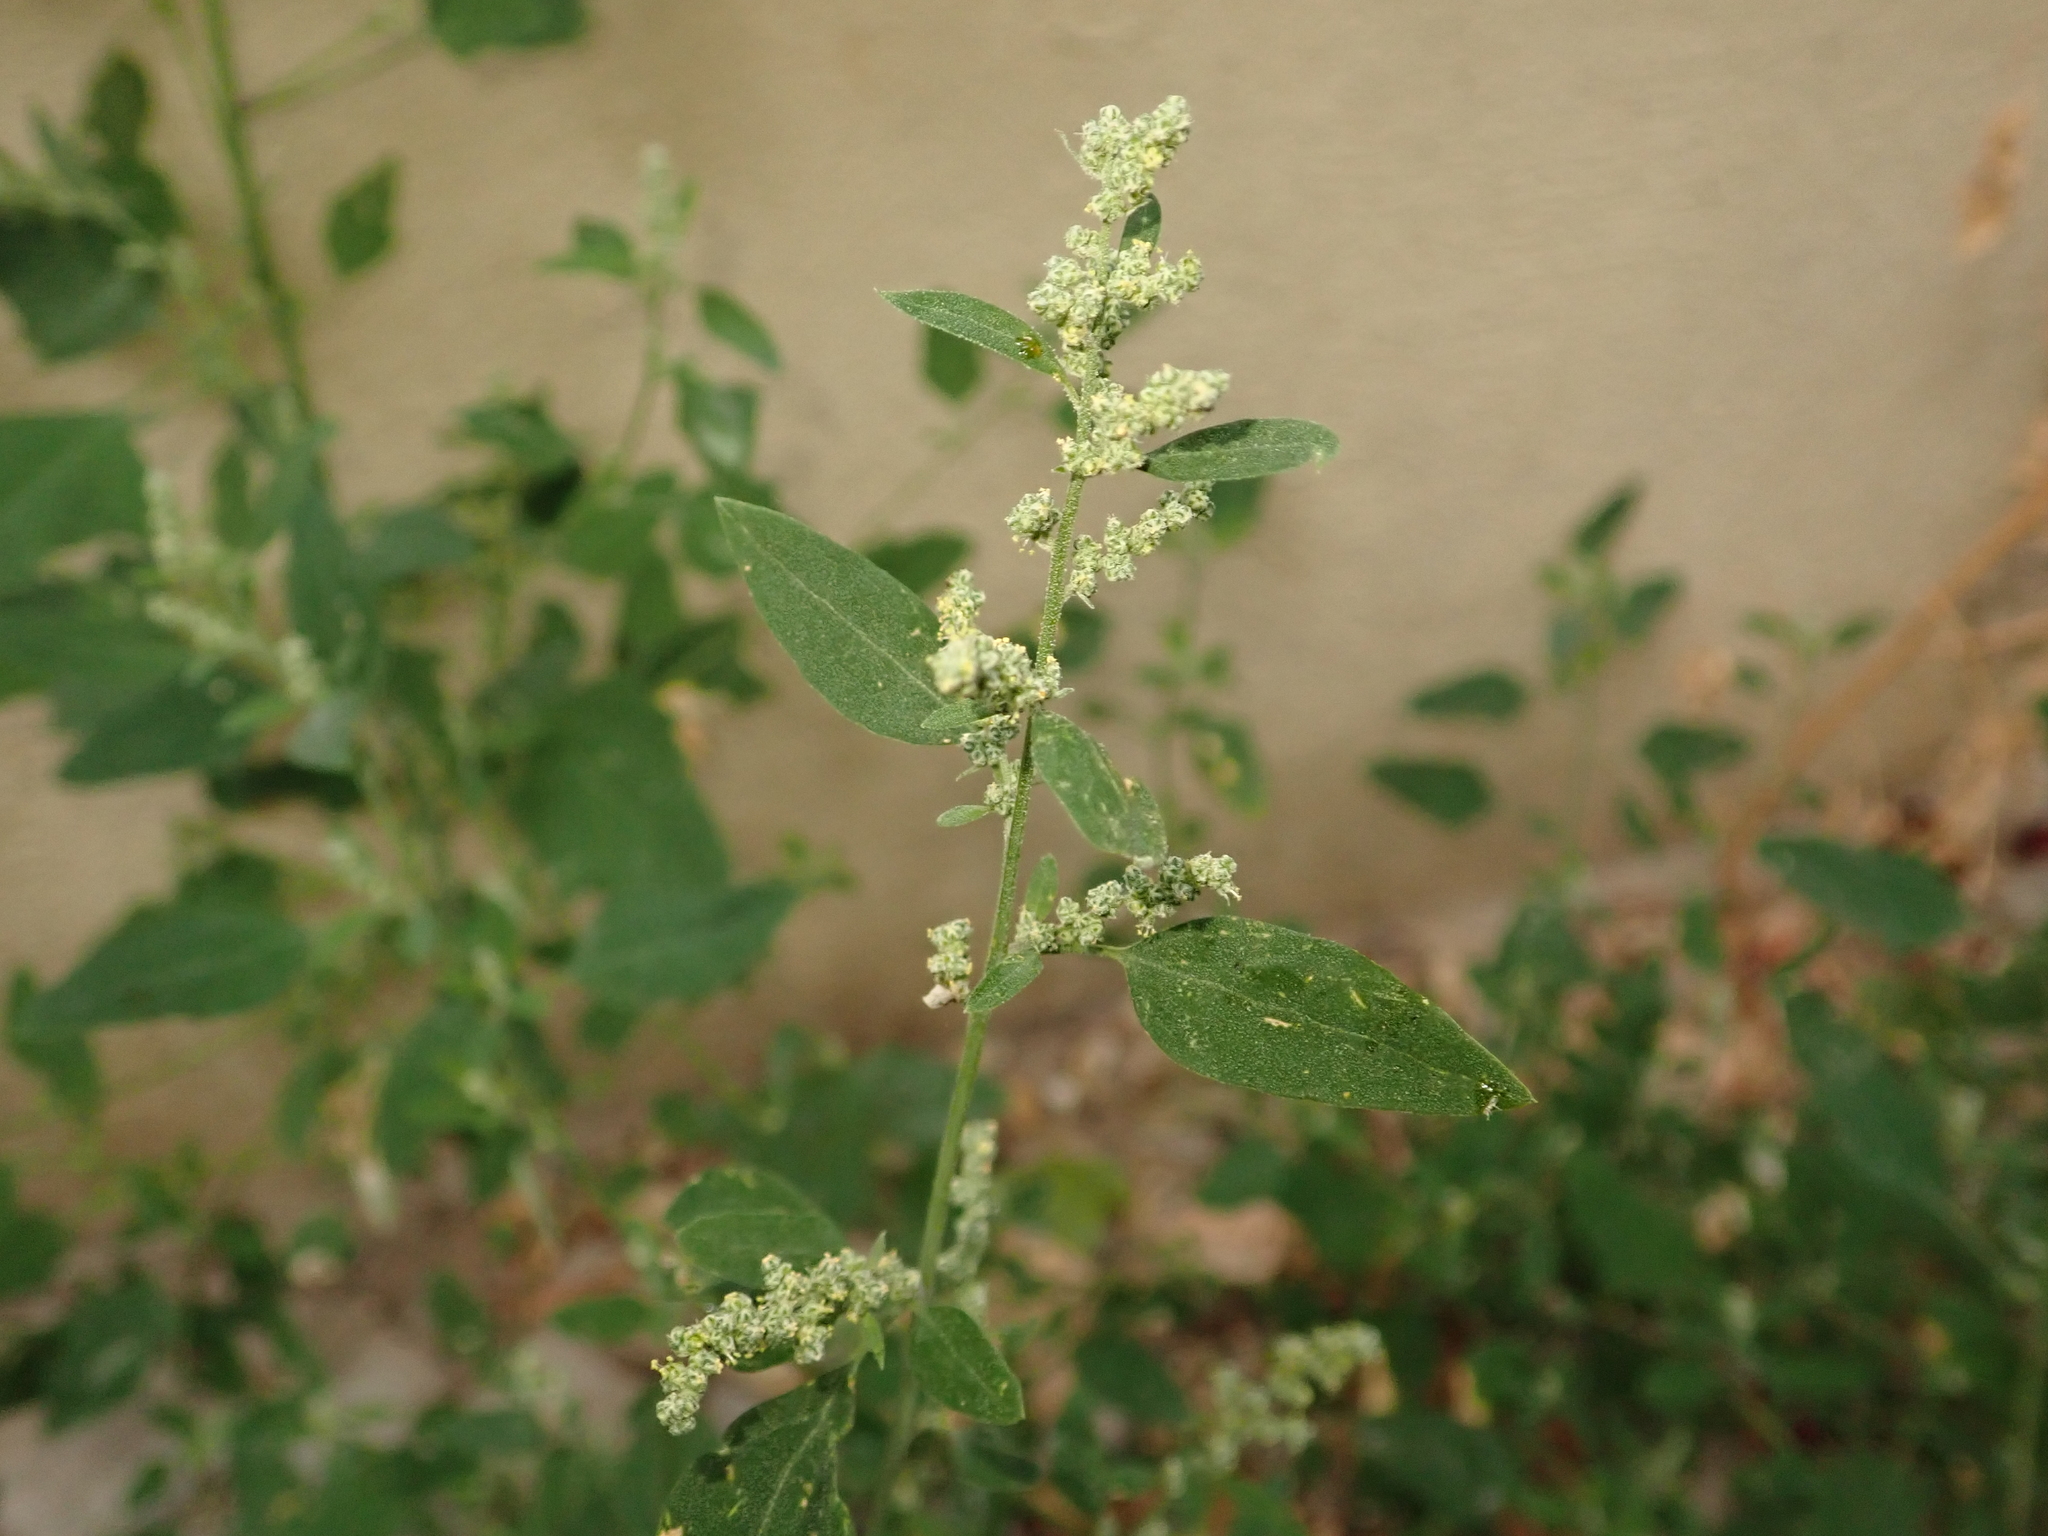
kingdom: Plantae
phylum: Tracheophyta
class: Magnoliopsida
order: Caryophyllales
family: Amaranthaceae
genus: Chenopodium
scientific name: Chenopodium album
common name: Fat-hen
